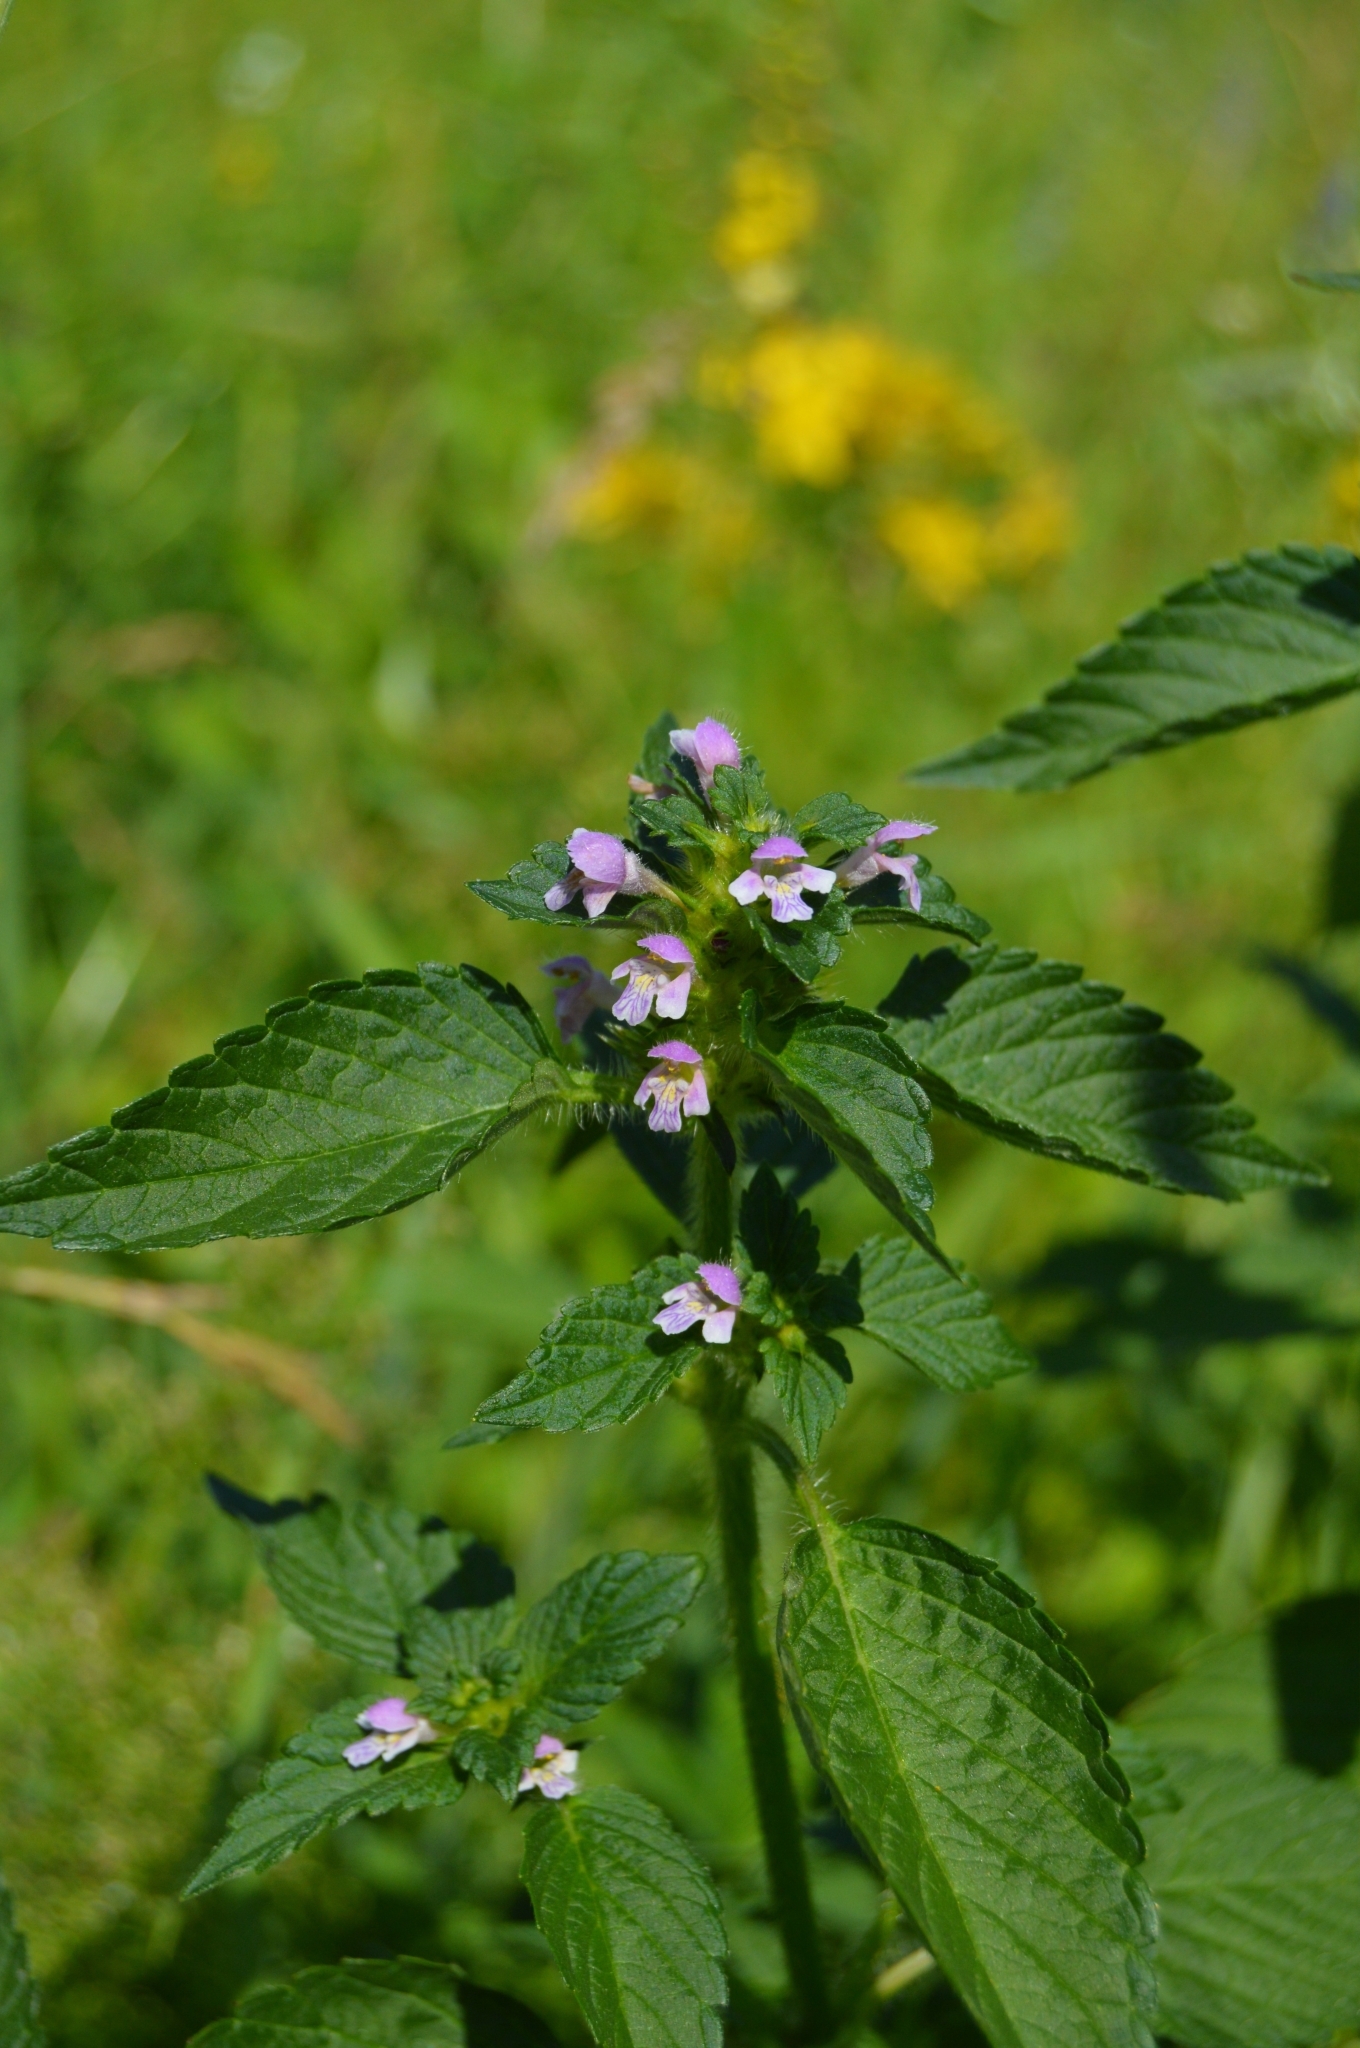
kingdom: Plantae
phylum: Tracheophyta
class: Magnoliopsida
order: Lamiales
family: Lamiaceae
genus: Galeopsis
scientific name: Galeopsis bifida
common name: Bifid hemp-nettle
